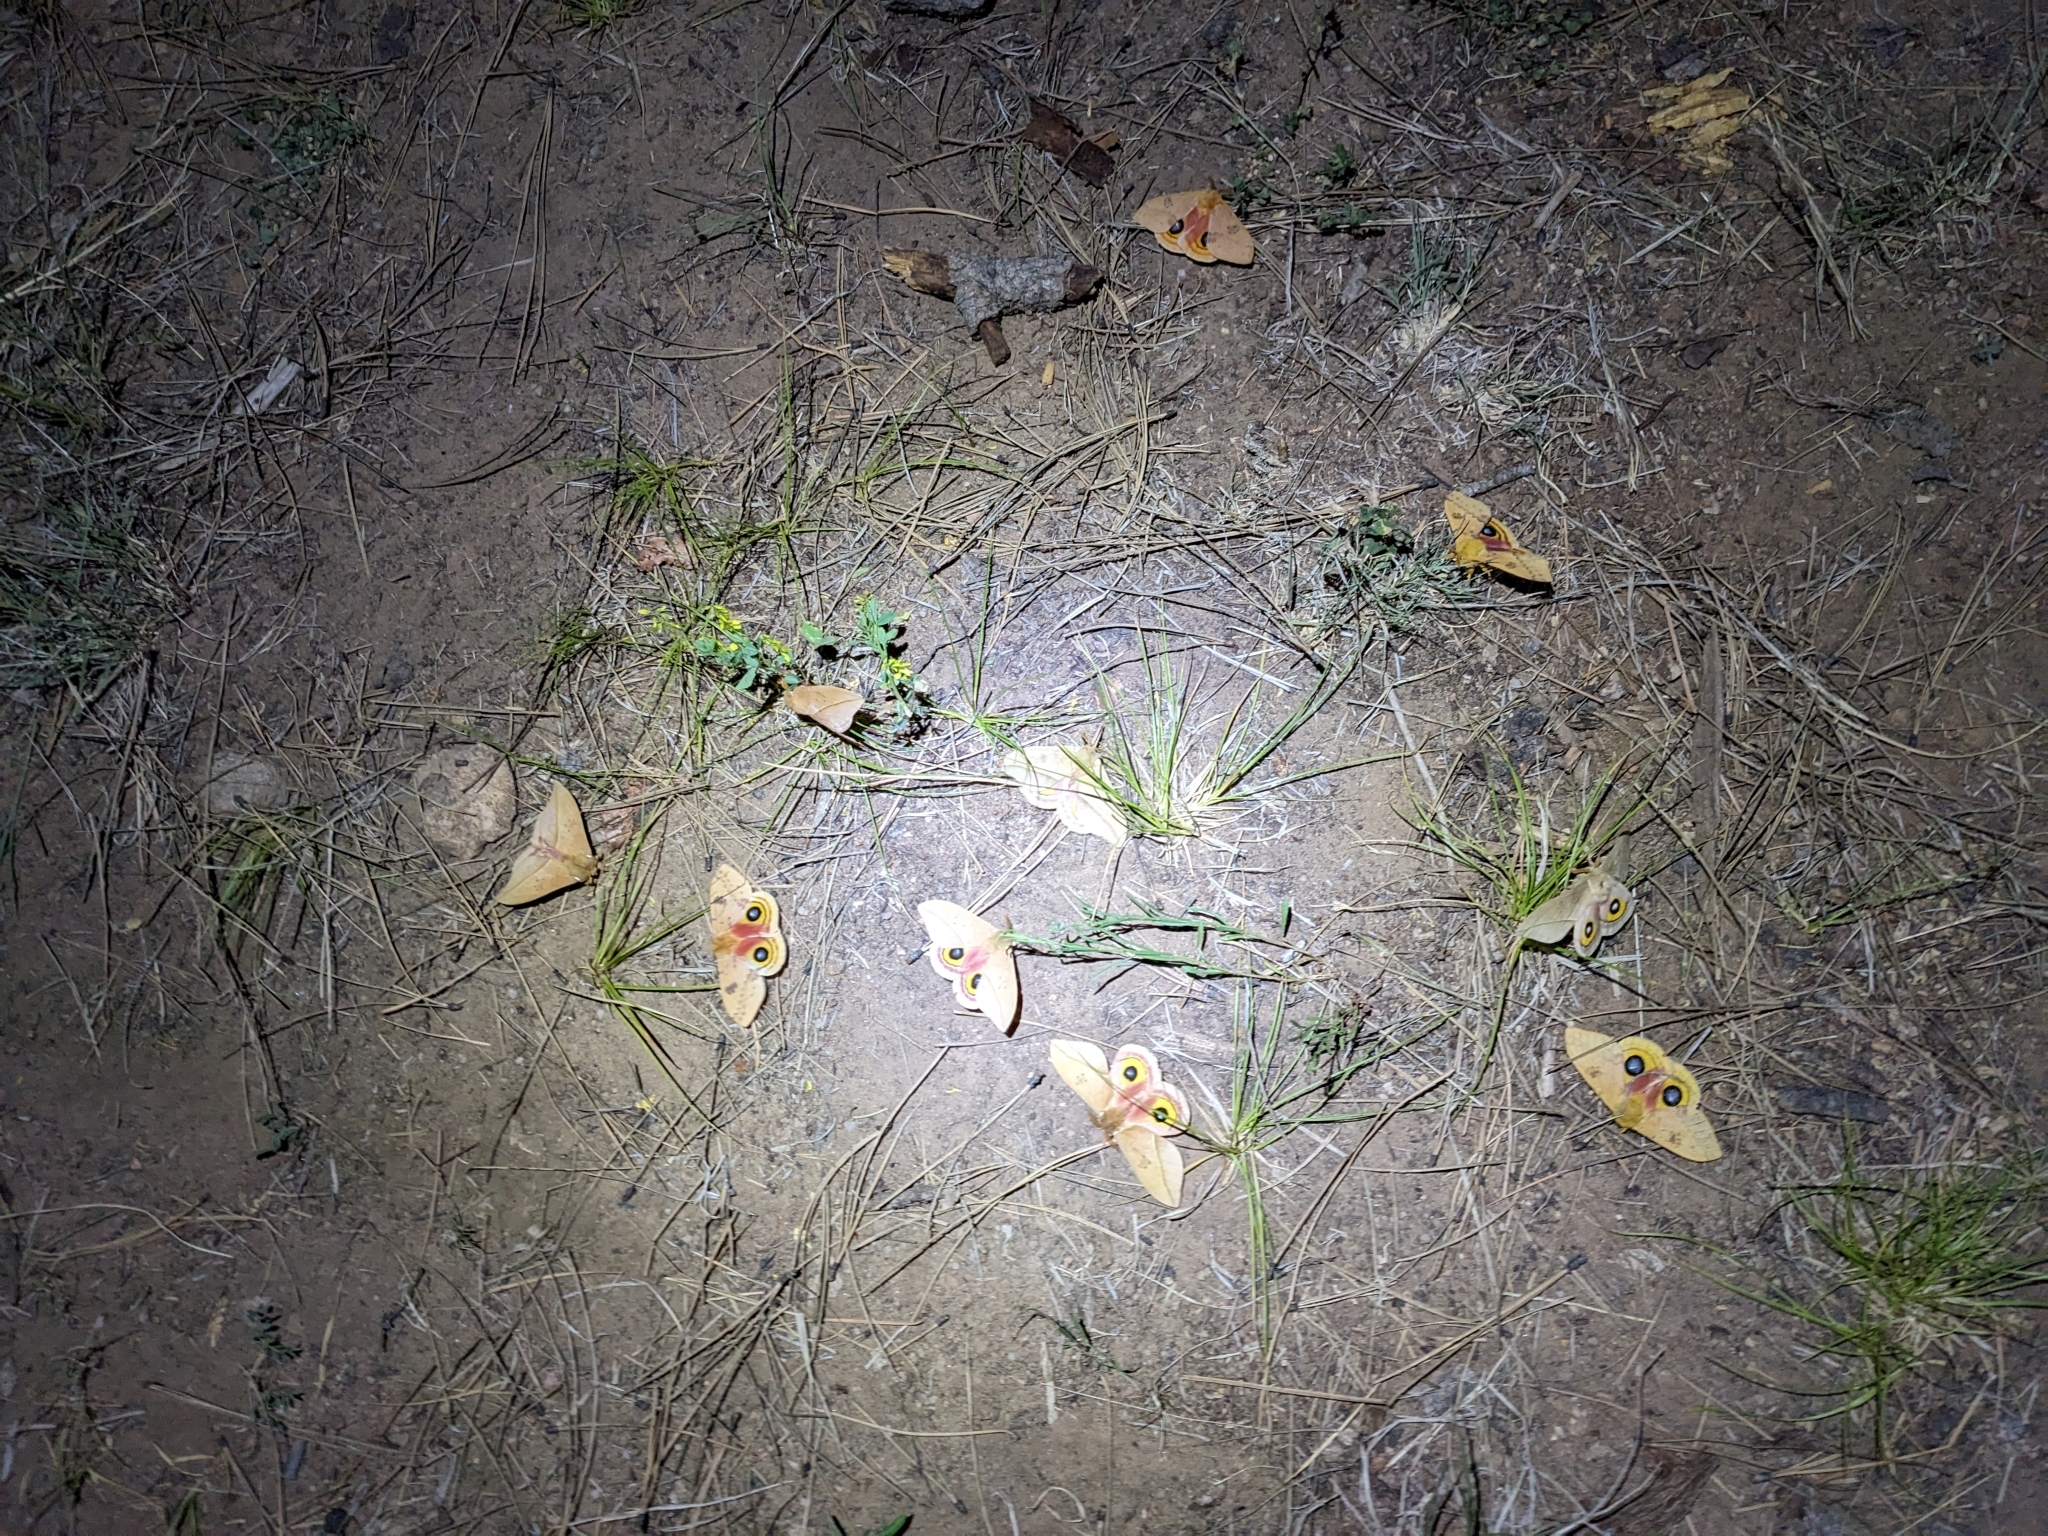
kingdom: Animalia
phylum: Arthropoda
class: Insecta
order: Lepidoptera
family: Saturniidae
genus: Automeris
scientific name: Automeris io
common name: Io moth
